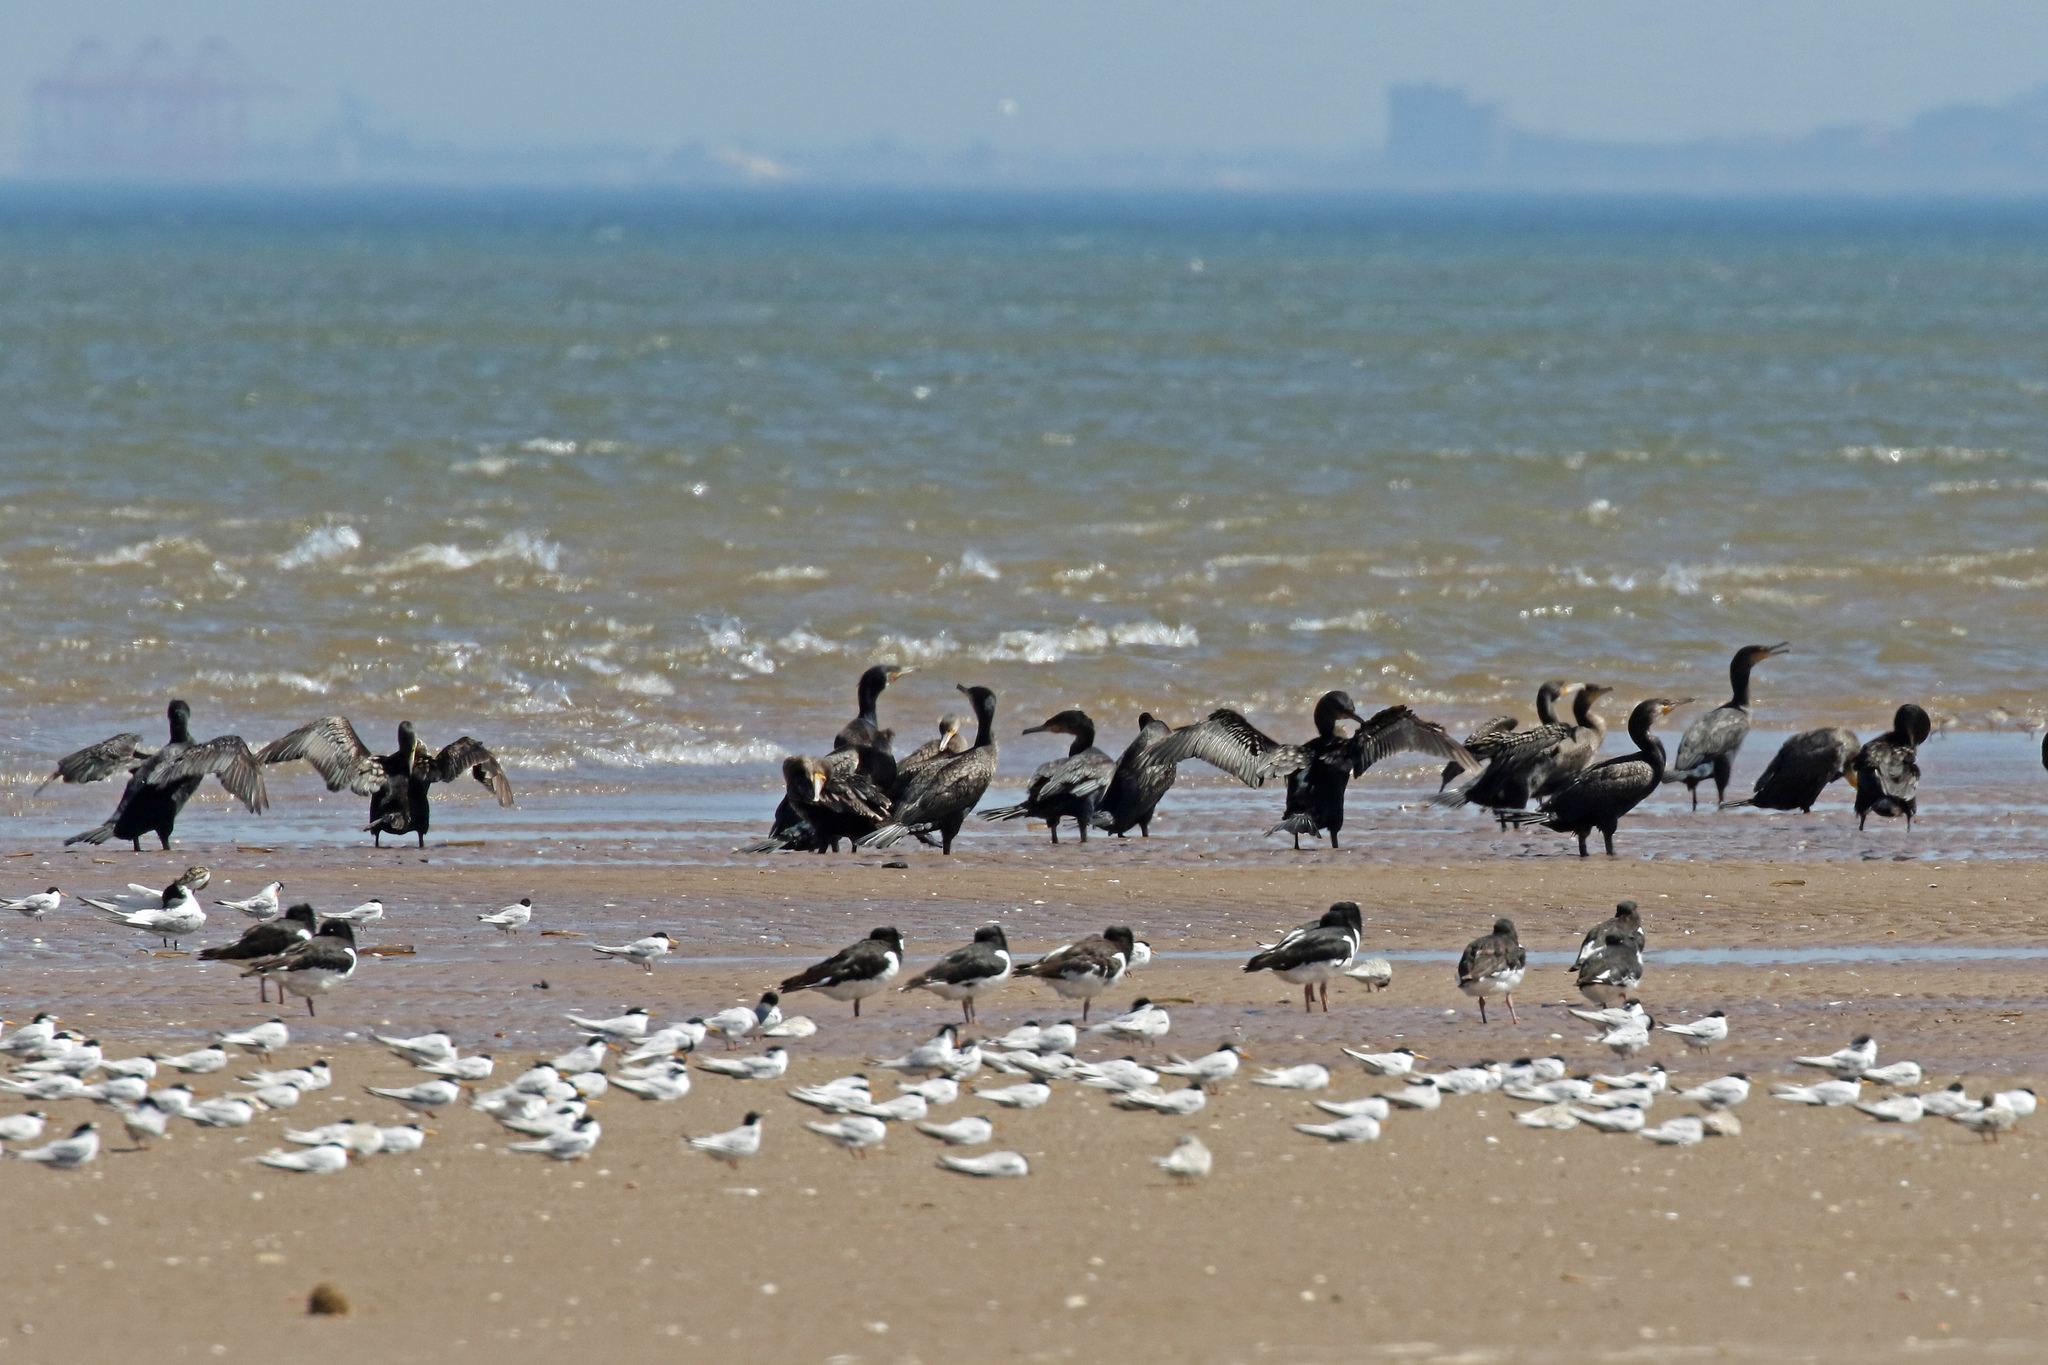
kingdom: Animalia
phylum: Chordata
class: Aves
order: Suliformes
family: Phalacrocoracidae
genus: Phalacrocorax
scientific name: Phalacrocorax carbo
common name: Great cormorant
